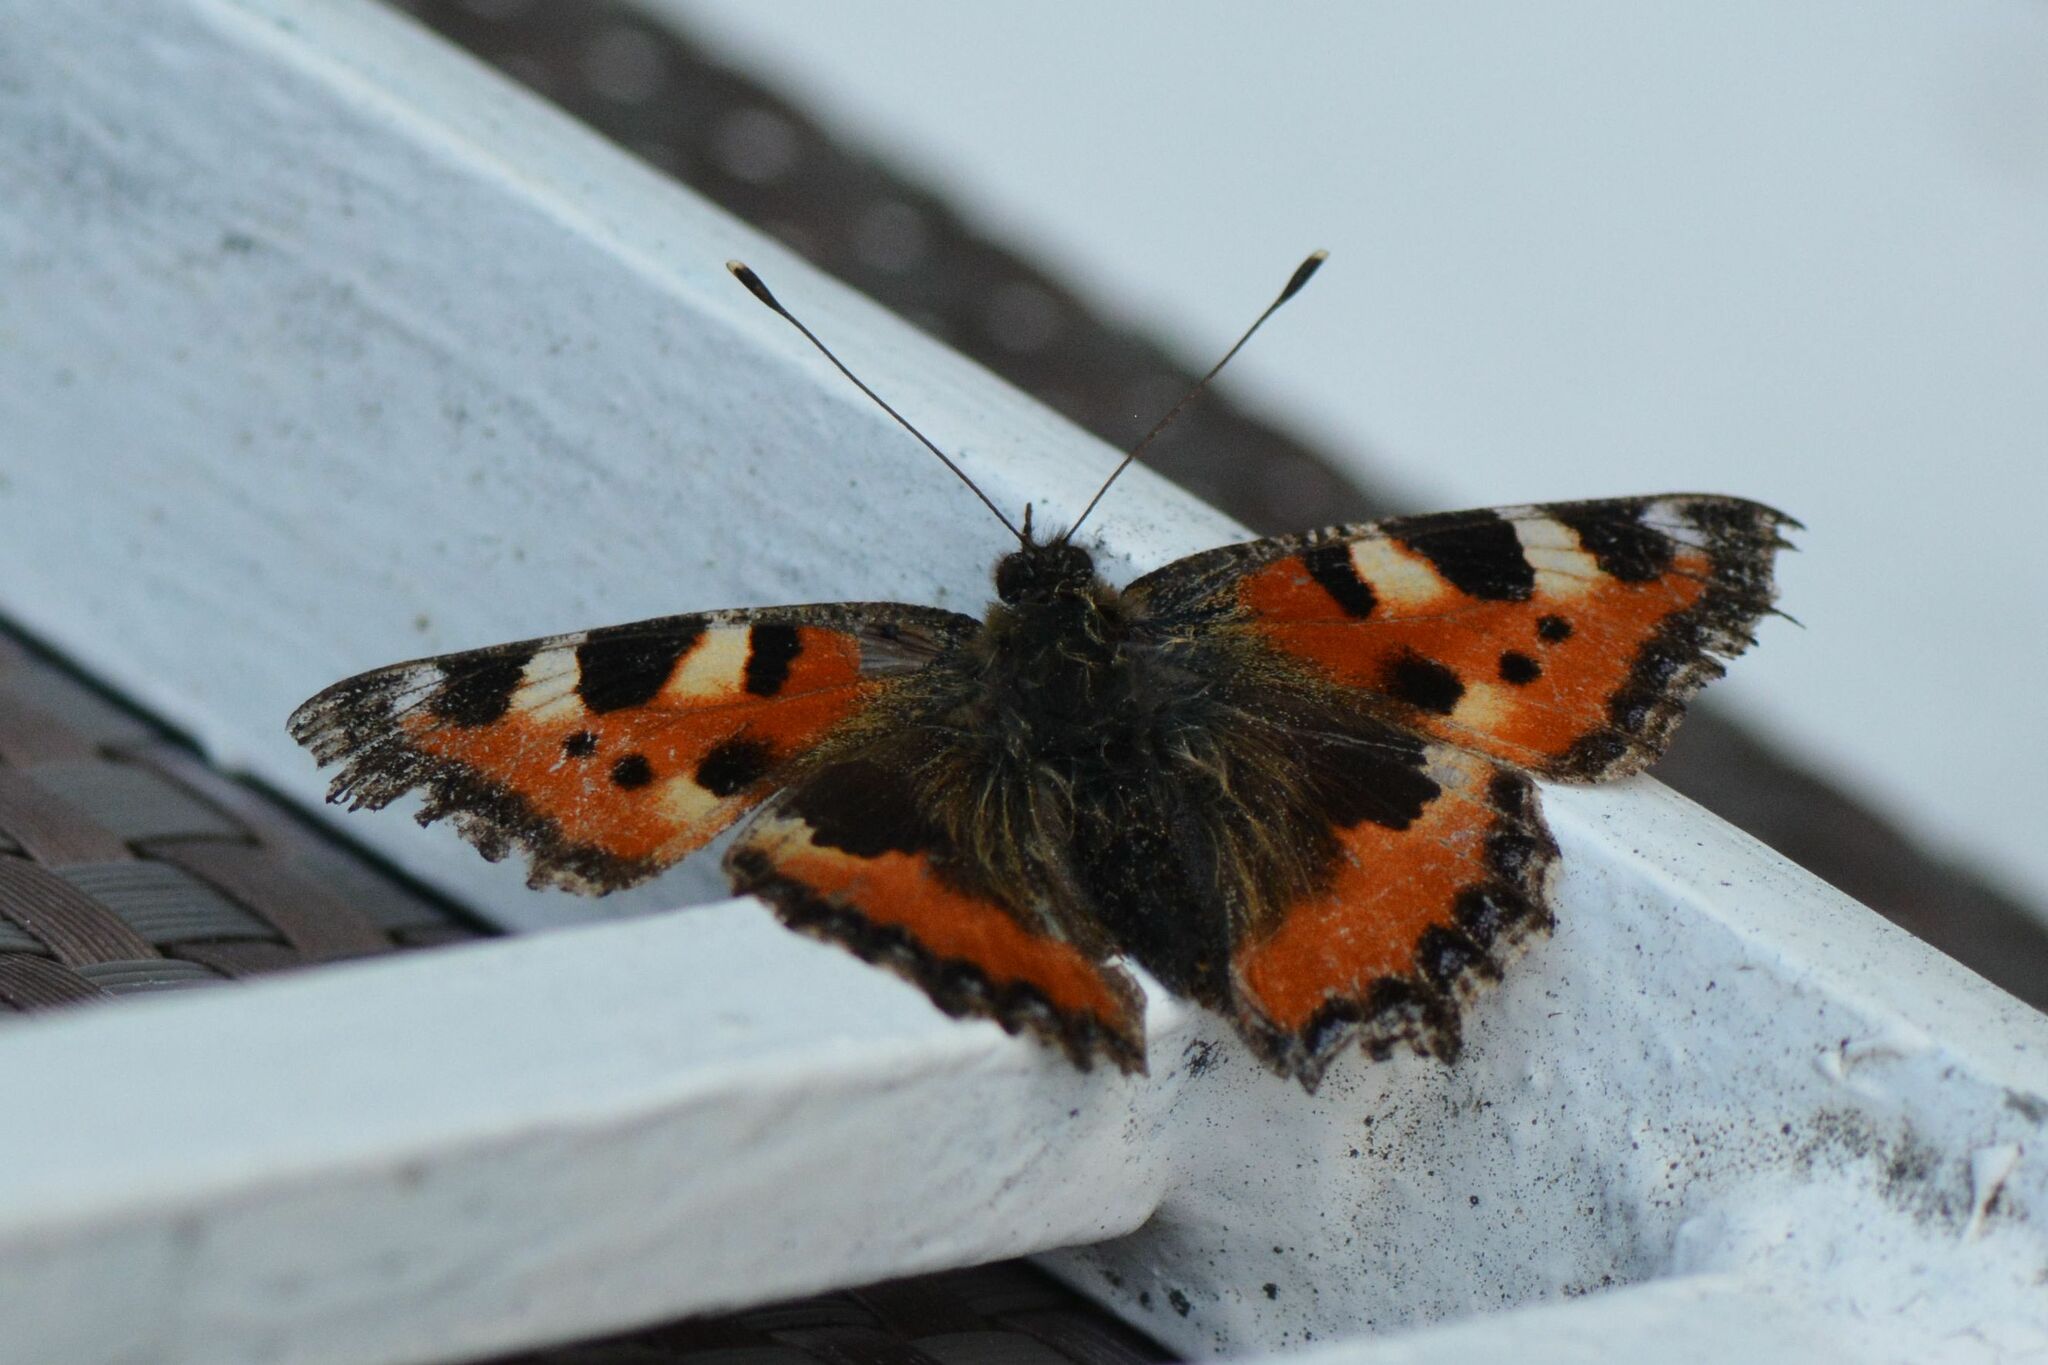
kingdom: Animalia
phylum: Arthropoda
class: Insecta
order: Lepidoptera
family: Nymphalidae
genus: Aglais
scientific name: Aglais urticae
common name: Small tortoiseshell
